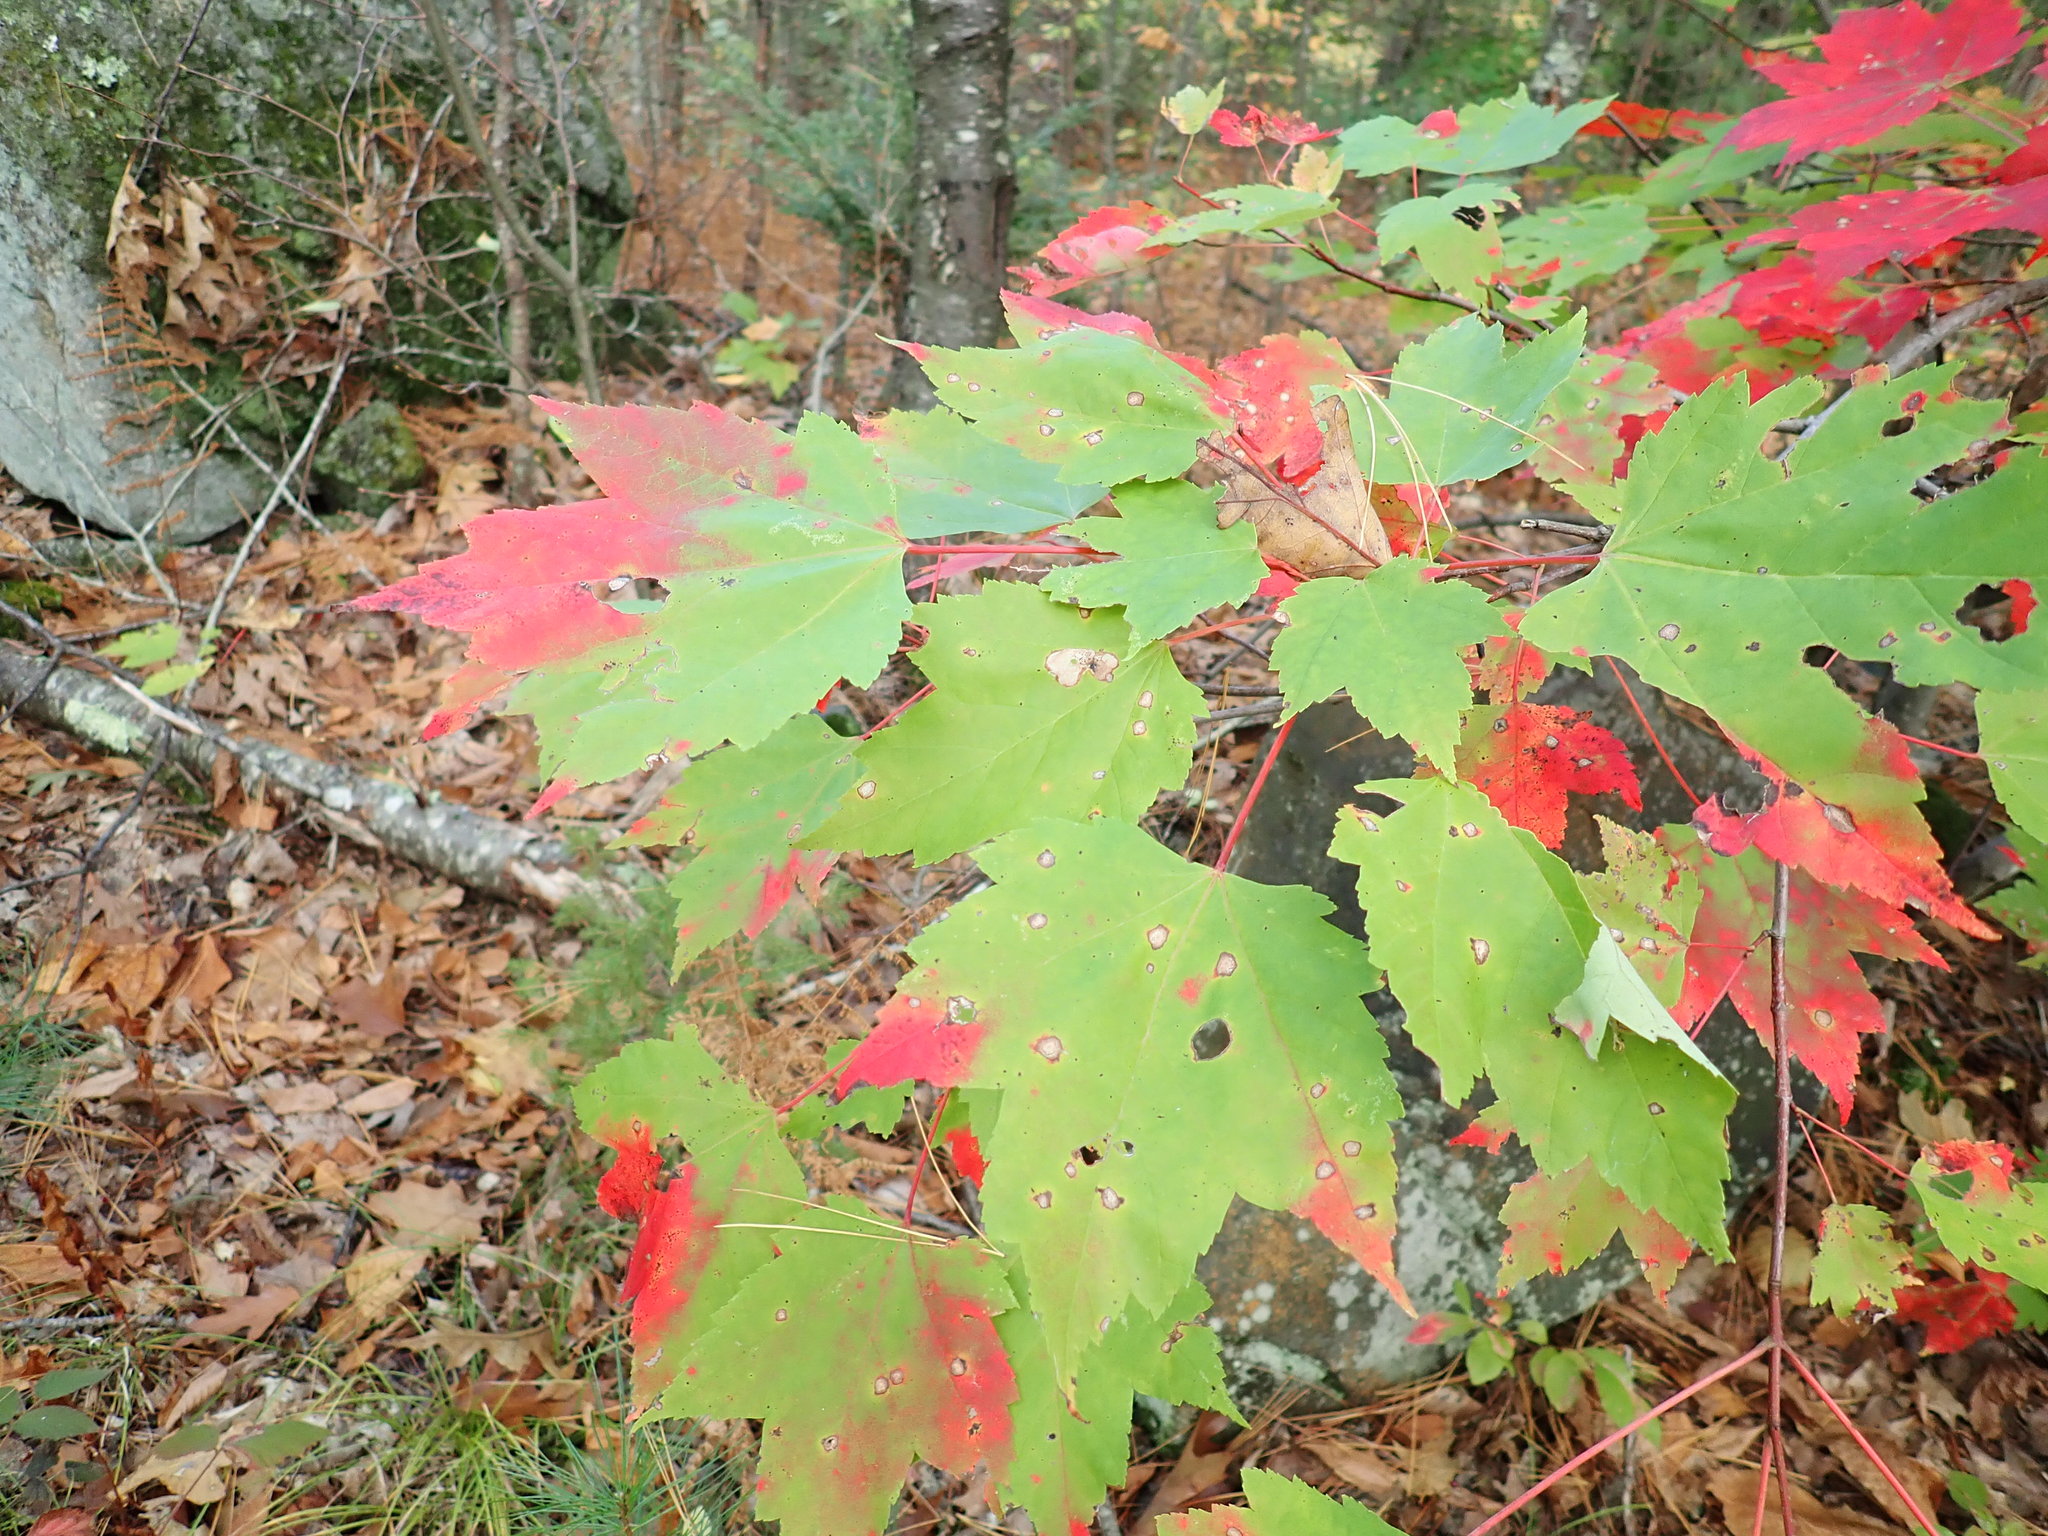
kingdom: Plantae
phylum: Tracheophyta
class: Magnoliopsida
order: Sapindales
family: Sapindaceae
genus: Acer
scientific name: Acer rubrum
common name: Red maple
